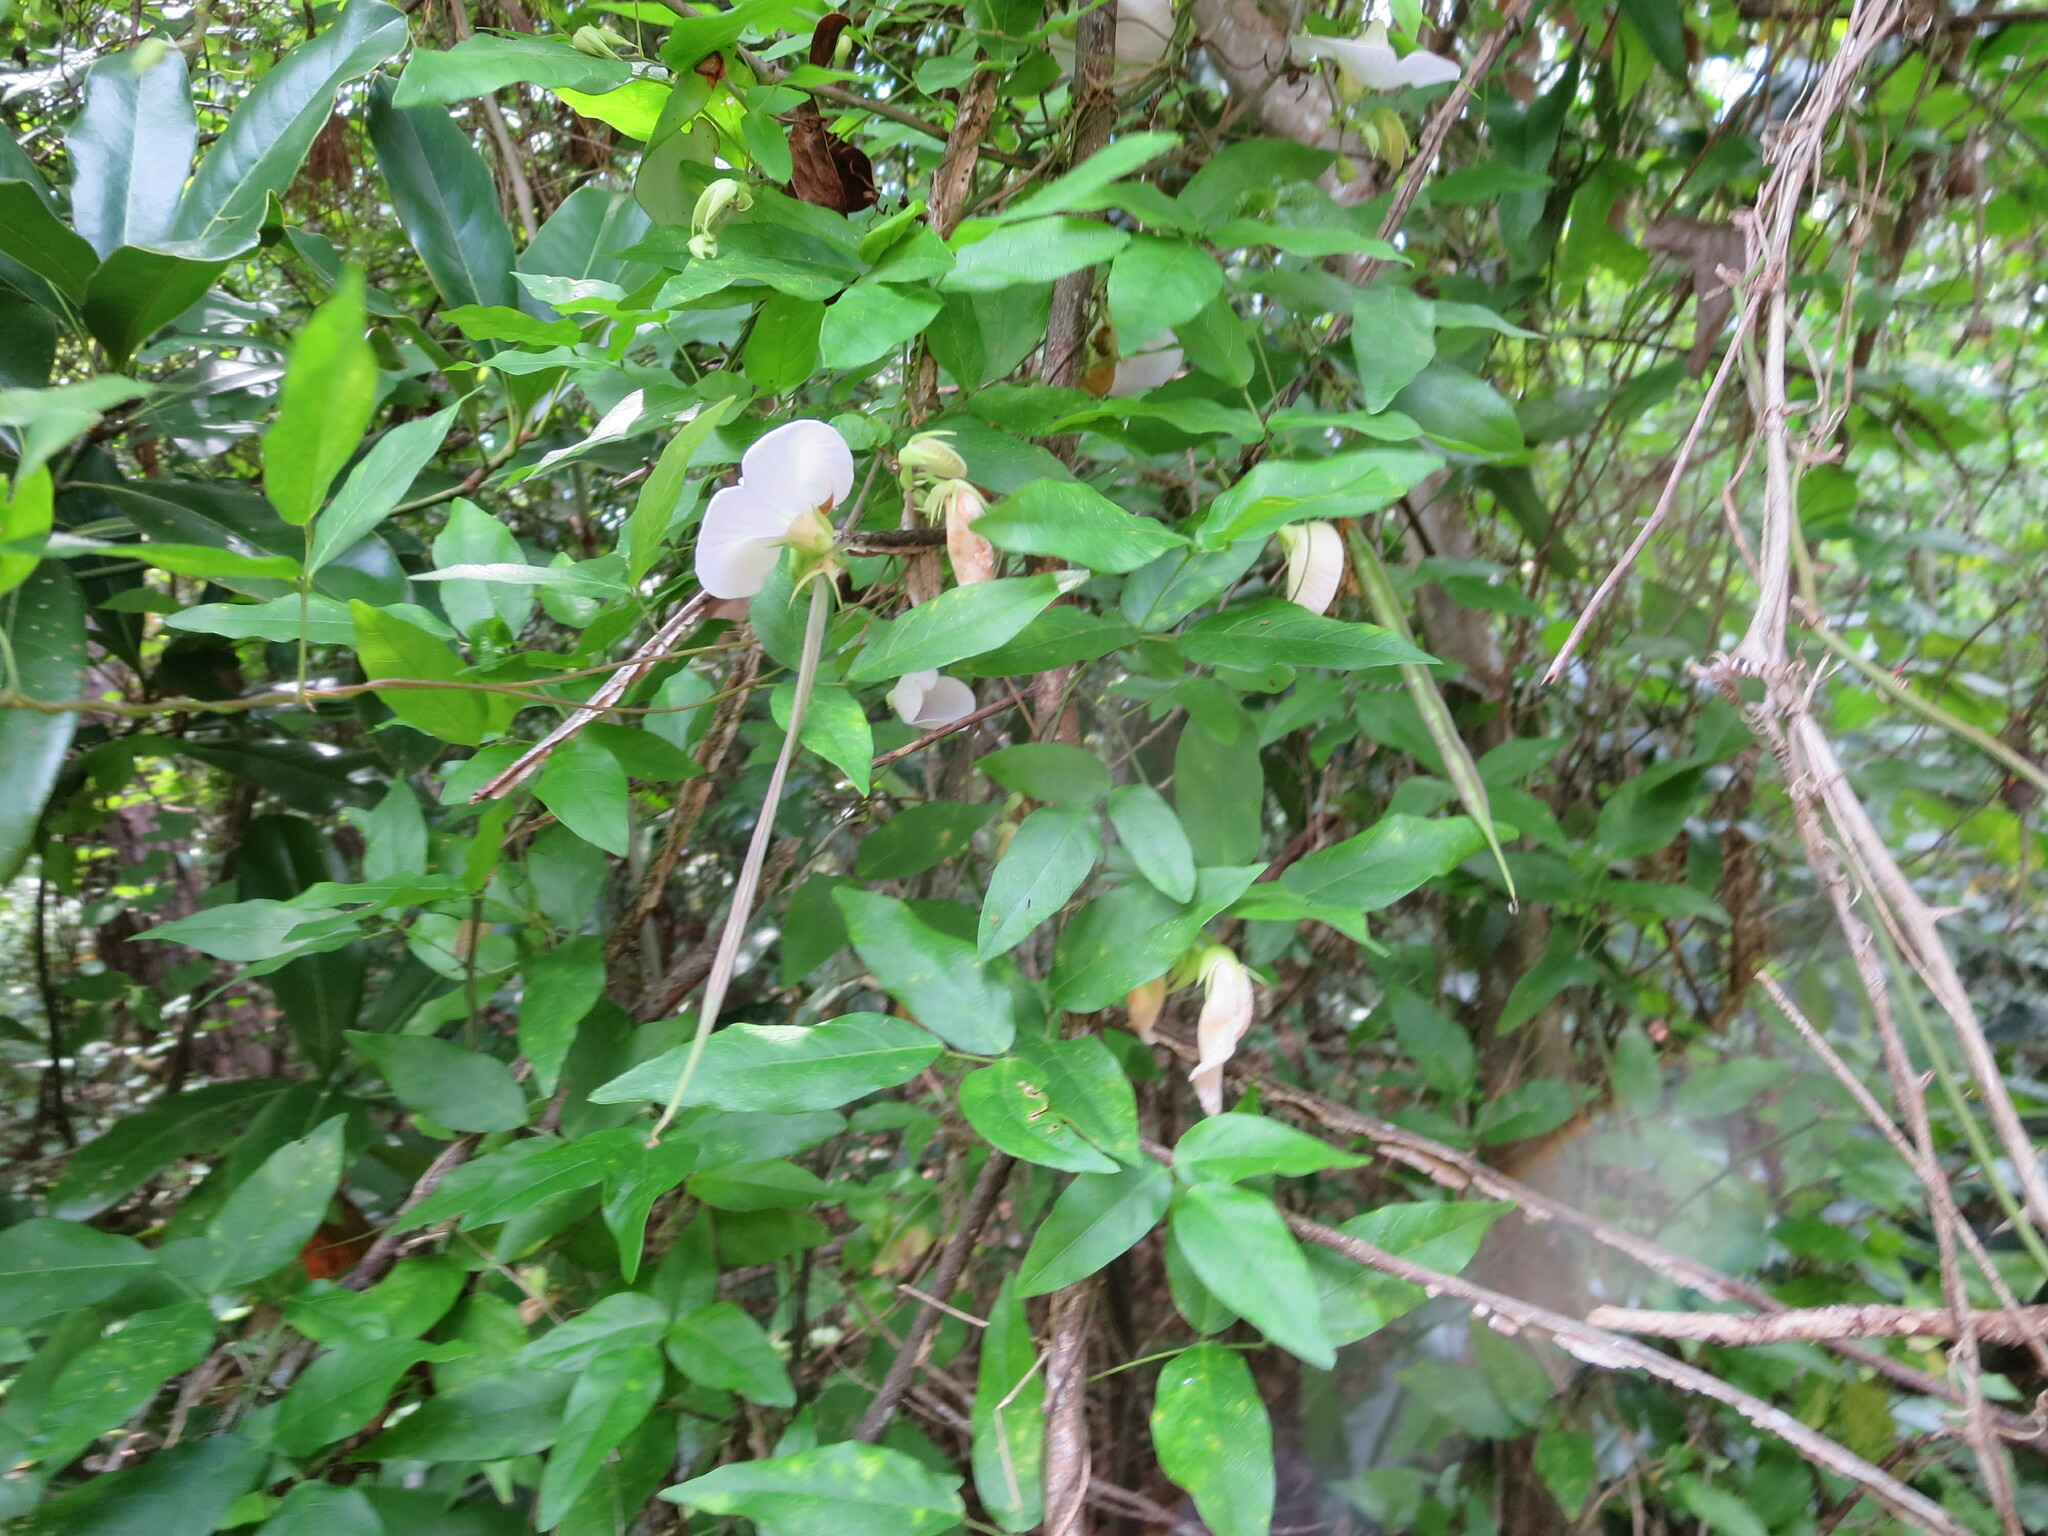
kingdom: Plantae
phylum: Tracheophyta
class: Magnoliopsida
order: Fabales
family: Fabaceae
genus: Centrosema
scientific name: Centrosema virginianum
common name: Butterfly-pea
